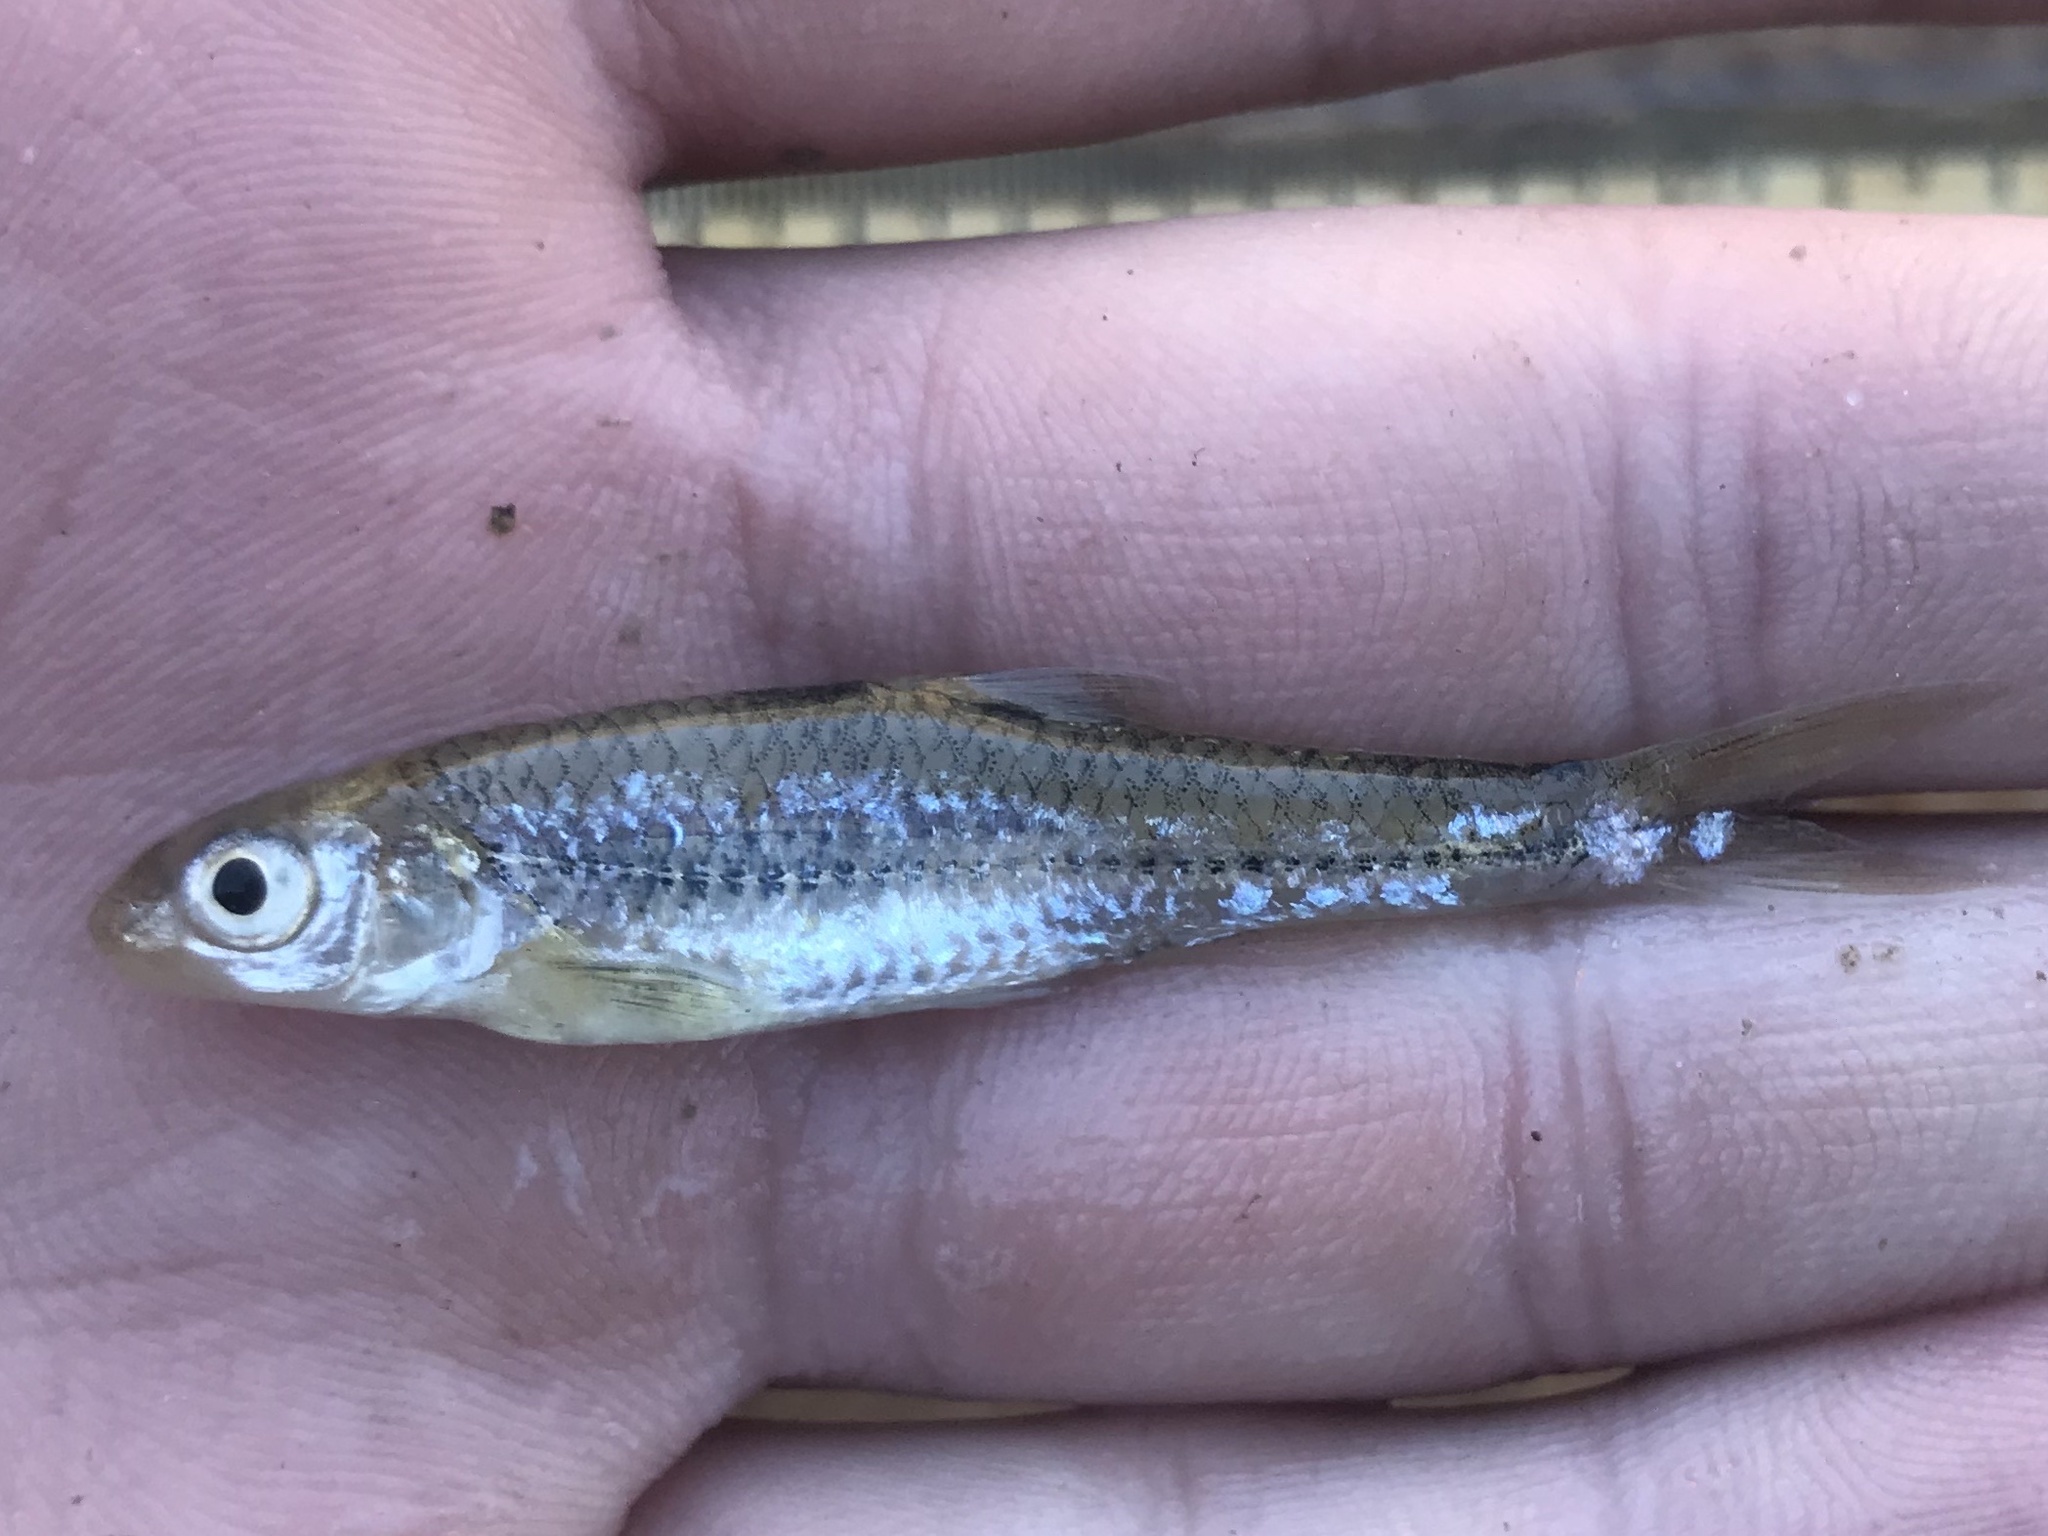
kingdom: Animalia
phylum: Chordata
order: Cypriniformes
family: Cyprinidae
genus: Notropis
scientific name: Notropis
